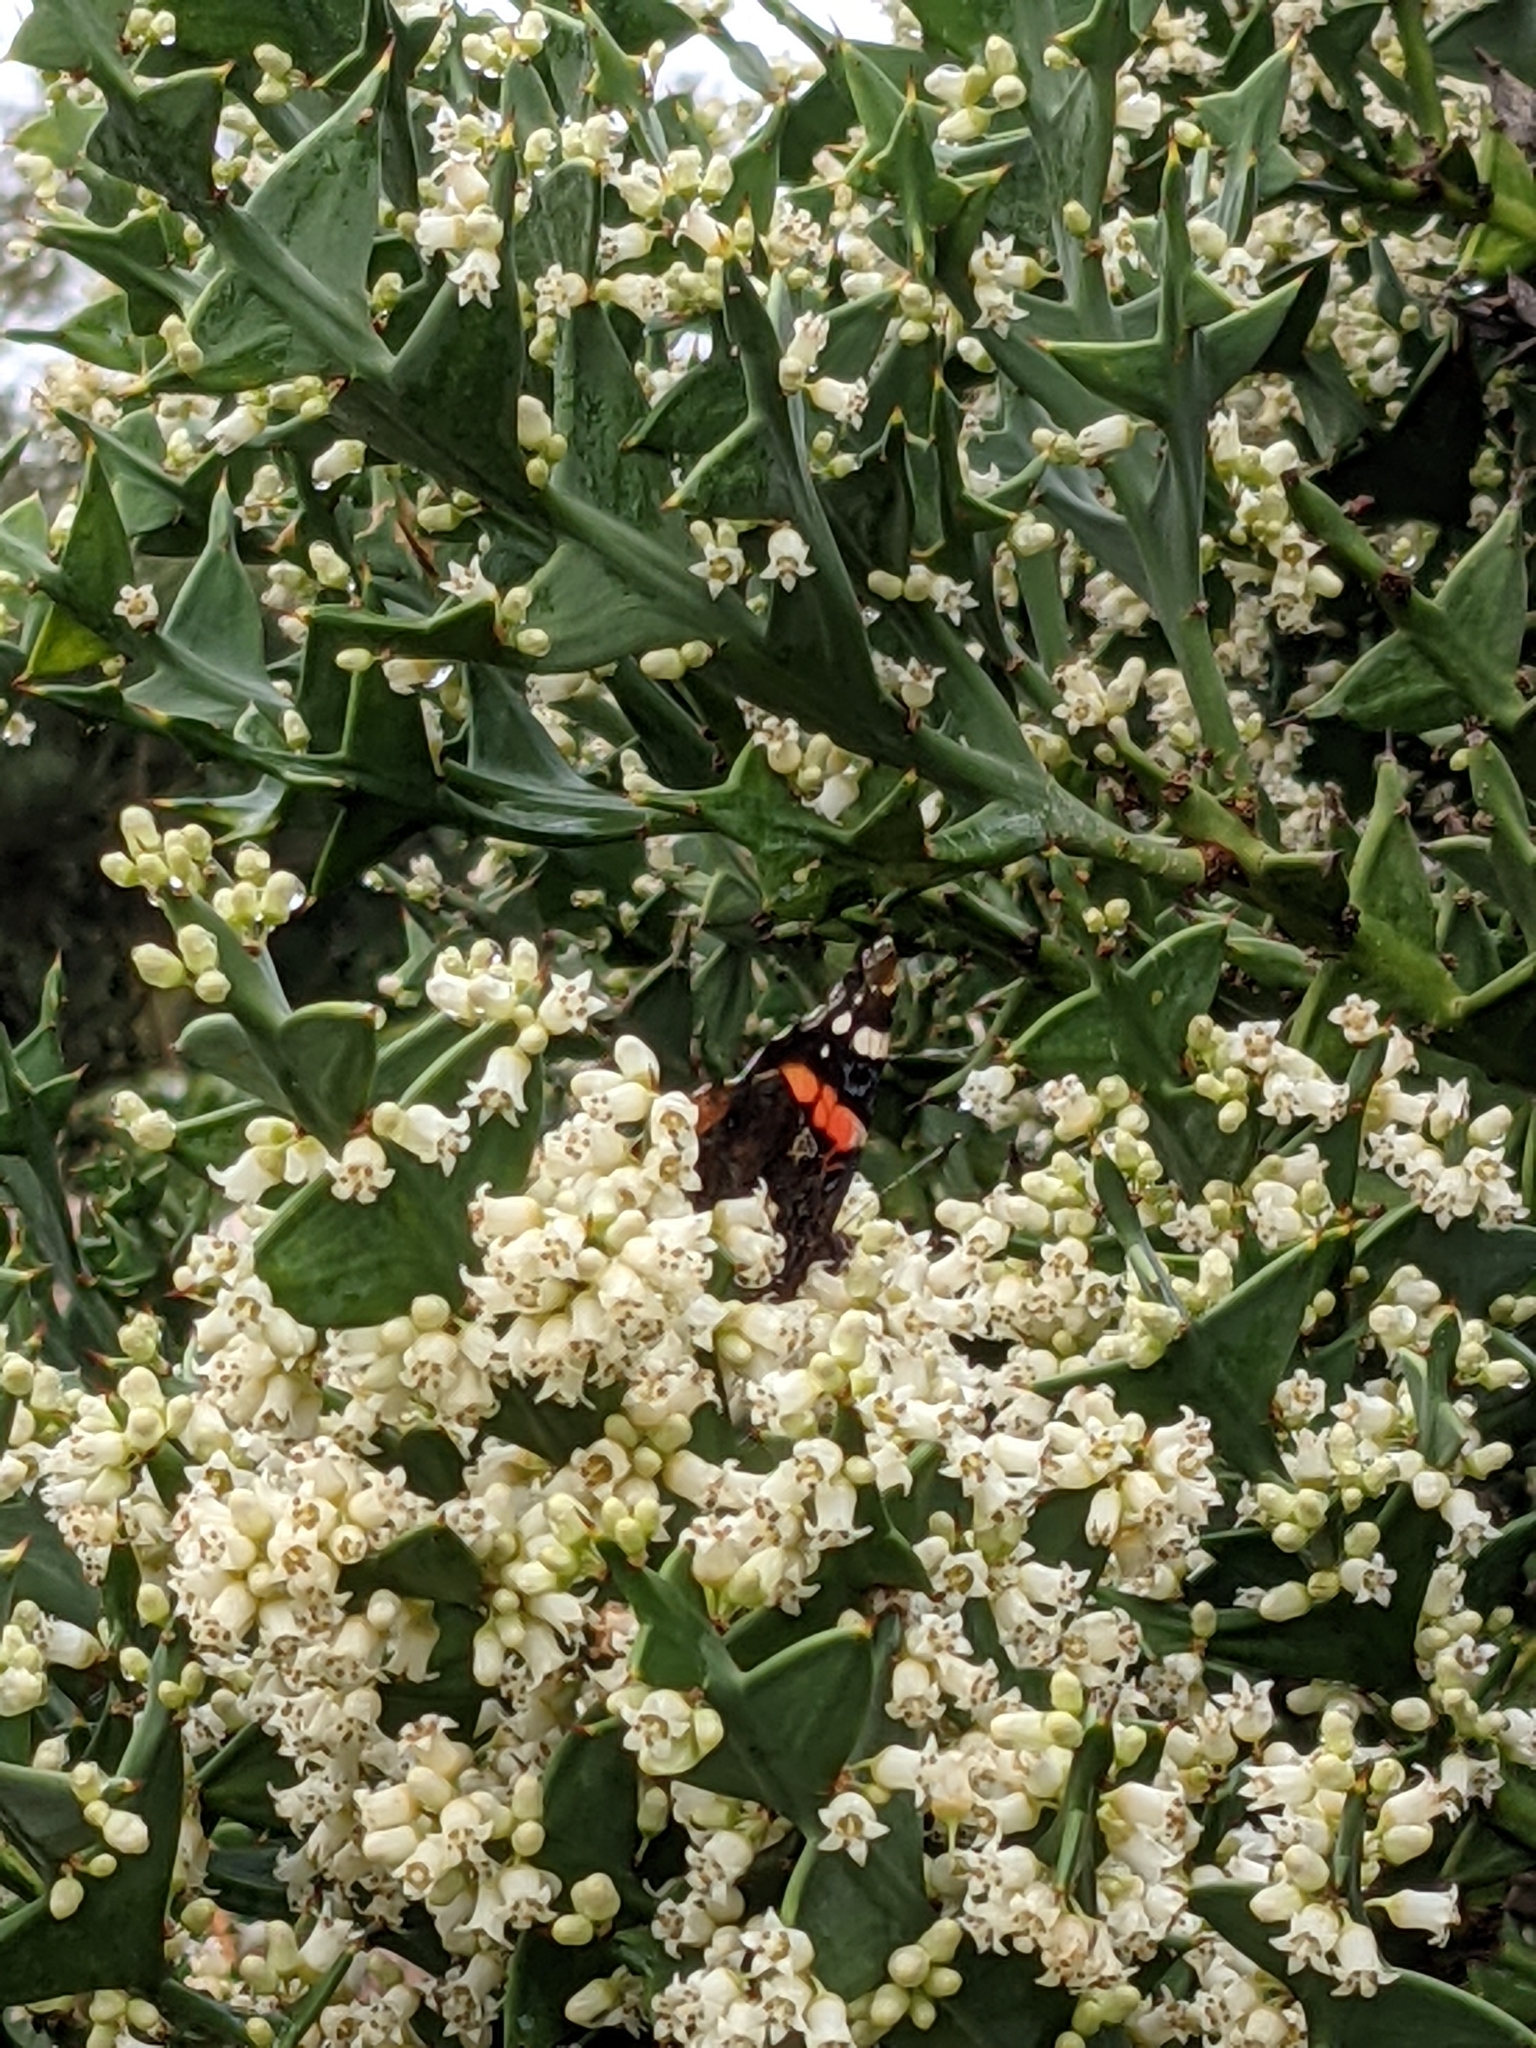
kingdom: Animalia
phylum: Arthropoda
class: Insecta
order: Lepidoptera
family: Nymphalidae
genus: Vanessa
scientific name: Vanessa atalanta
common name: Red admiral
